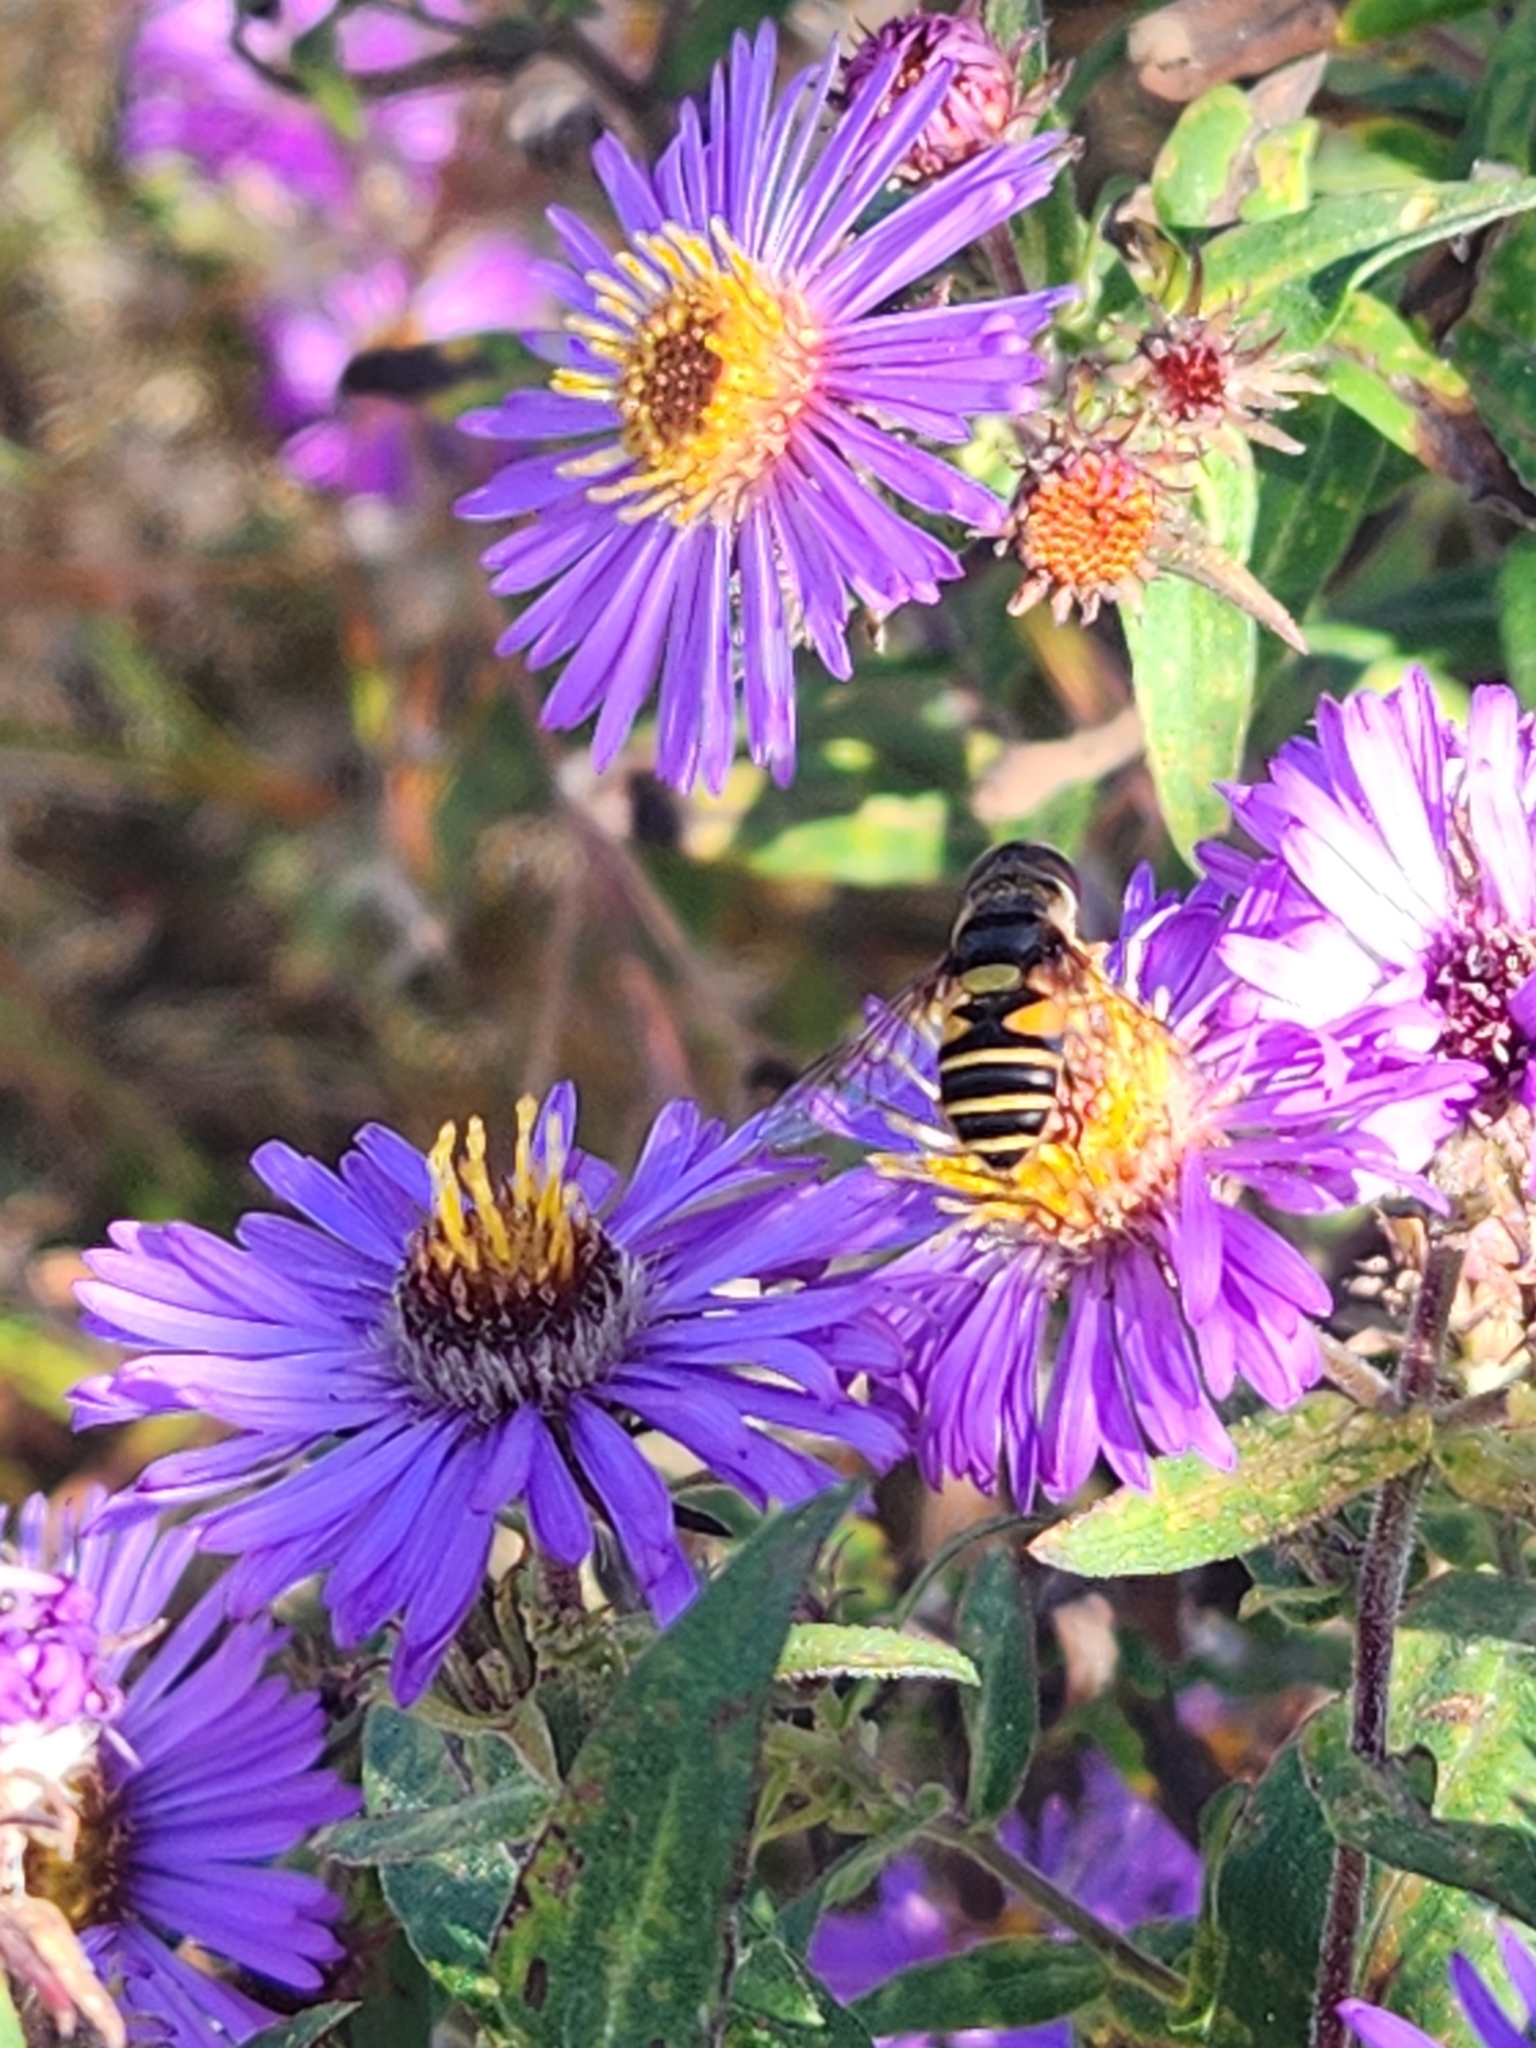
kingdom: Animalia
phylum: Arthropoda
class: Insecta
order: Diptera
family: Syrphidae
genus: Eristalis
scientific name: Eristalis transversa
